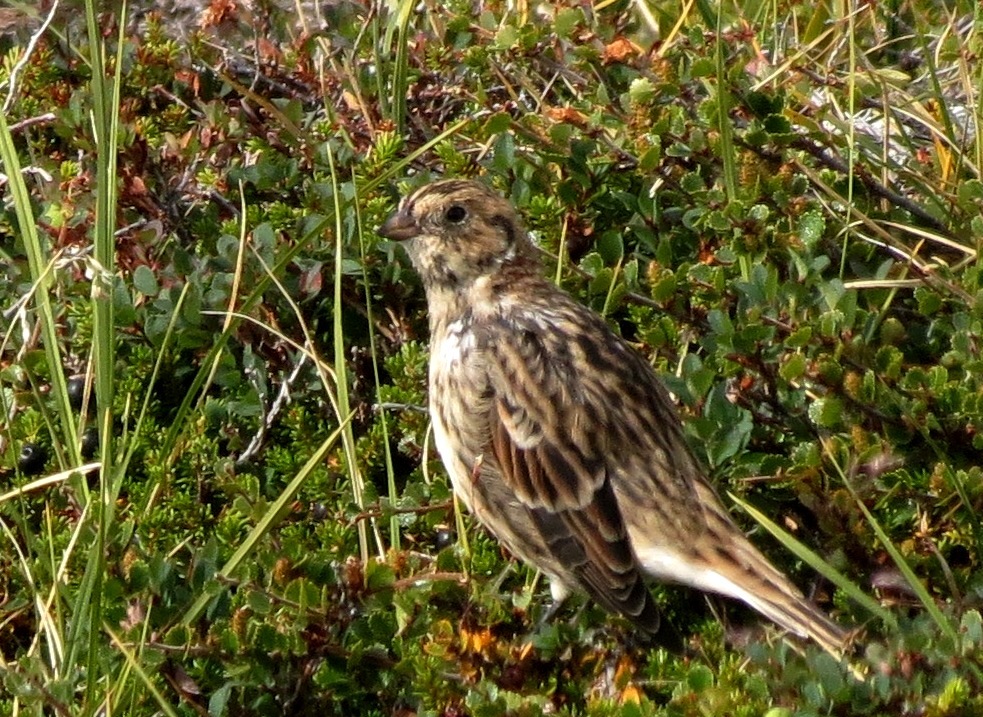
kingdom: Animalia
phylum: Chordata
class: Aves
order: Passeriformes
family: Calcariidae
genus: Calcarius
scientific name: Calcarius lapponicus
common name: Lapland longspur
